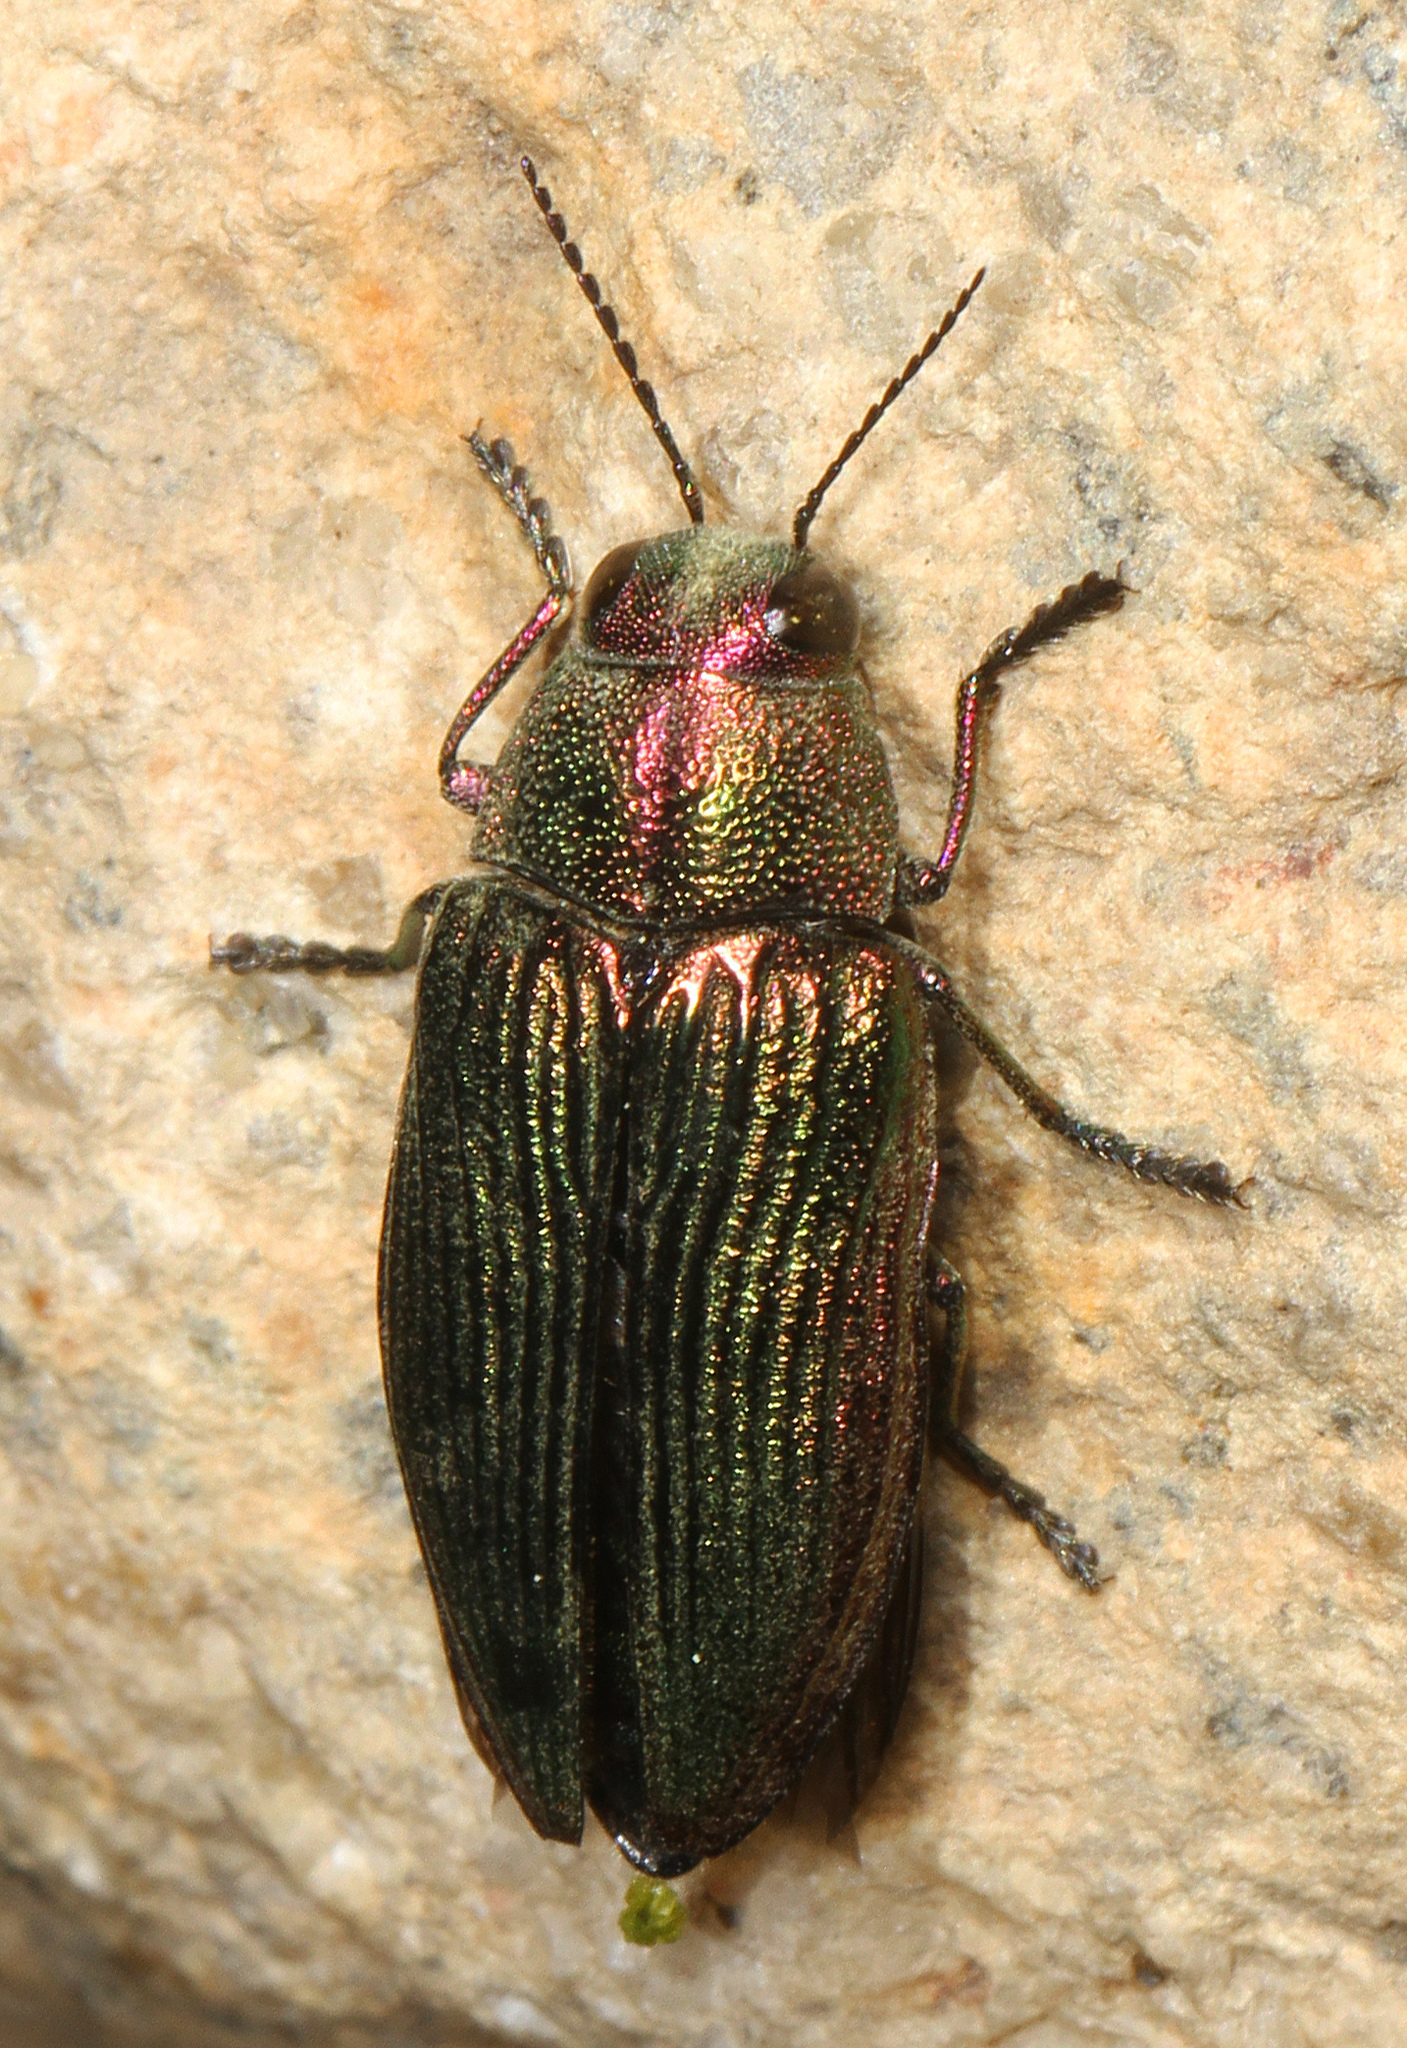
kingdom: Animalia
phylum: Arthropoda
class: Insecta
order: Coleoptera
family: Buprestidae
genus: Buprestis
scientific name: Buprestis adjecta
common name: Buprestid beetle
